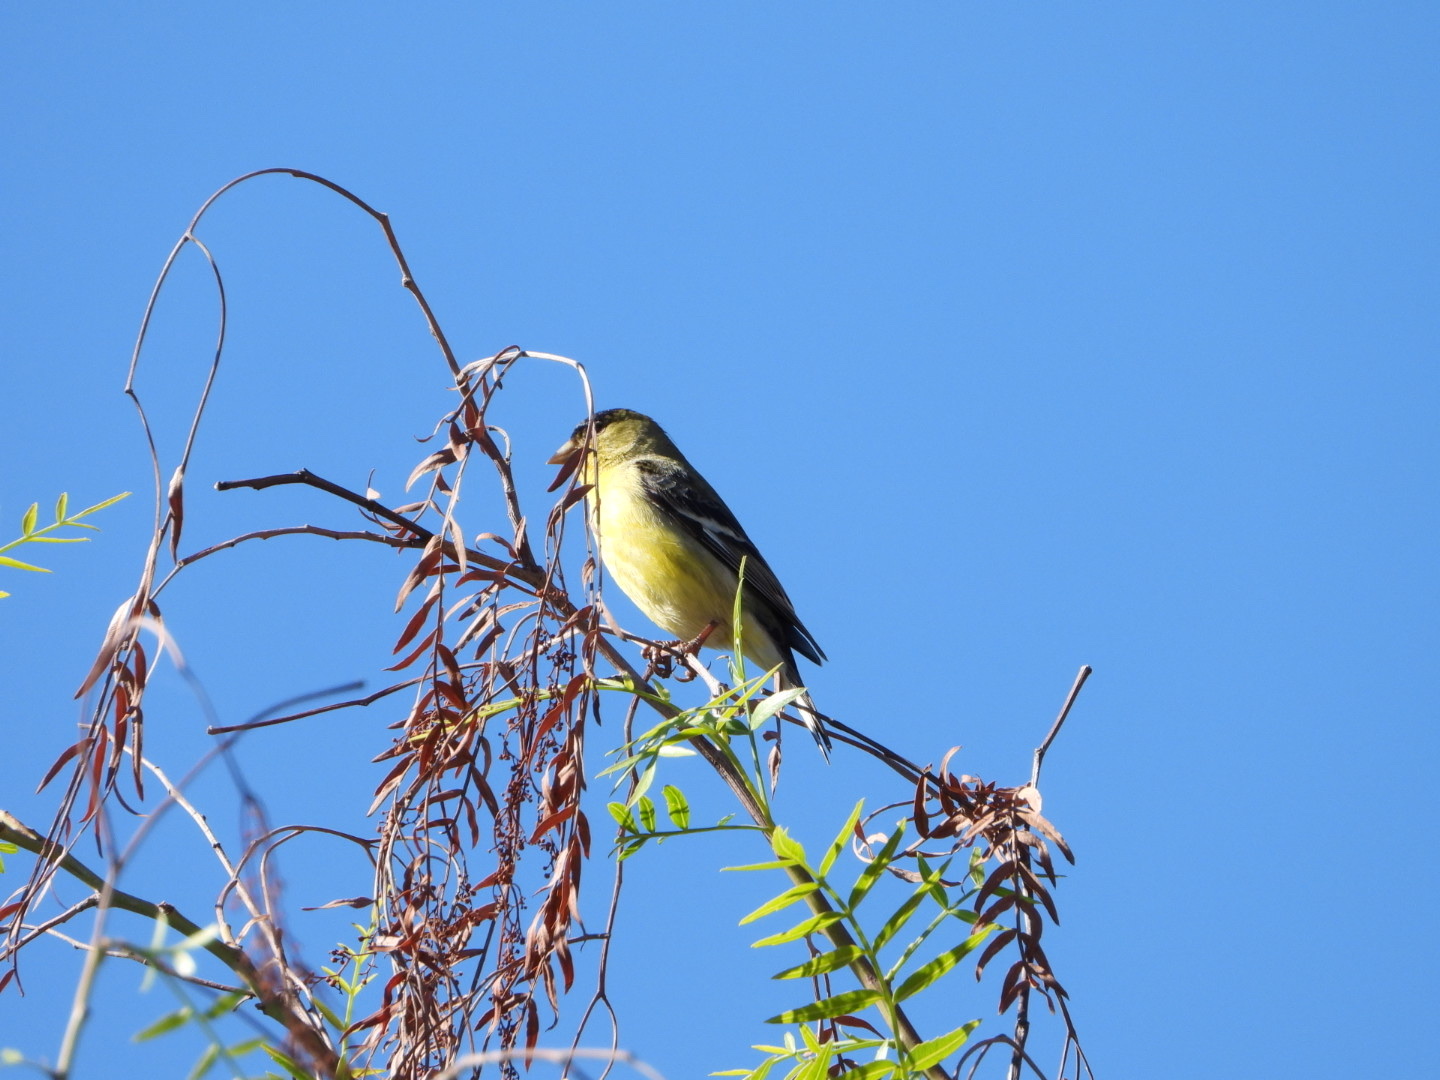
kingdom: Animalia
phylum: Chordata
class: Aves
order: Passeriformes
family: Fringillidae
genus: Spinus
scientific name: Spinus psaltria
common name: Lesser goldfinch
